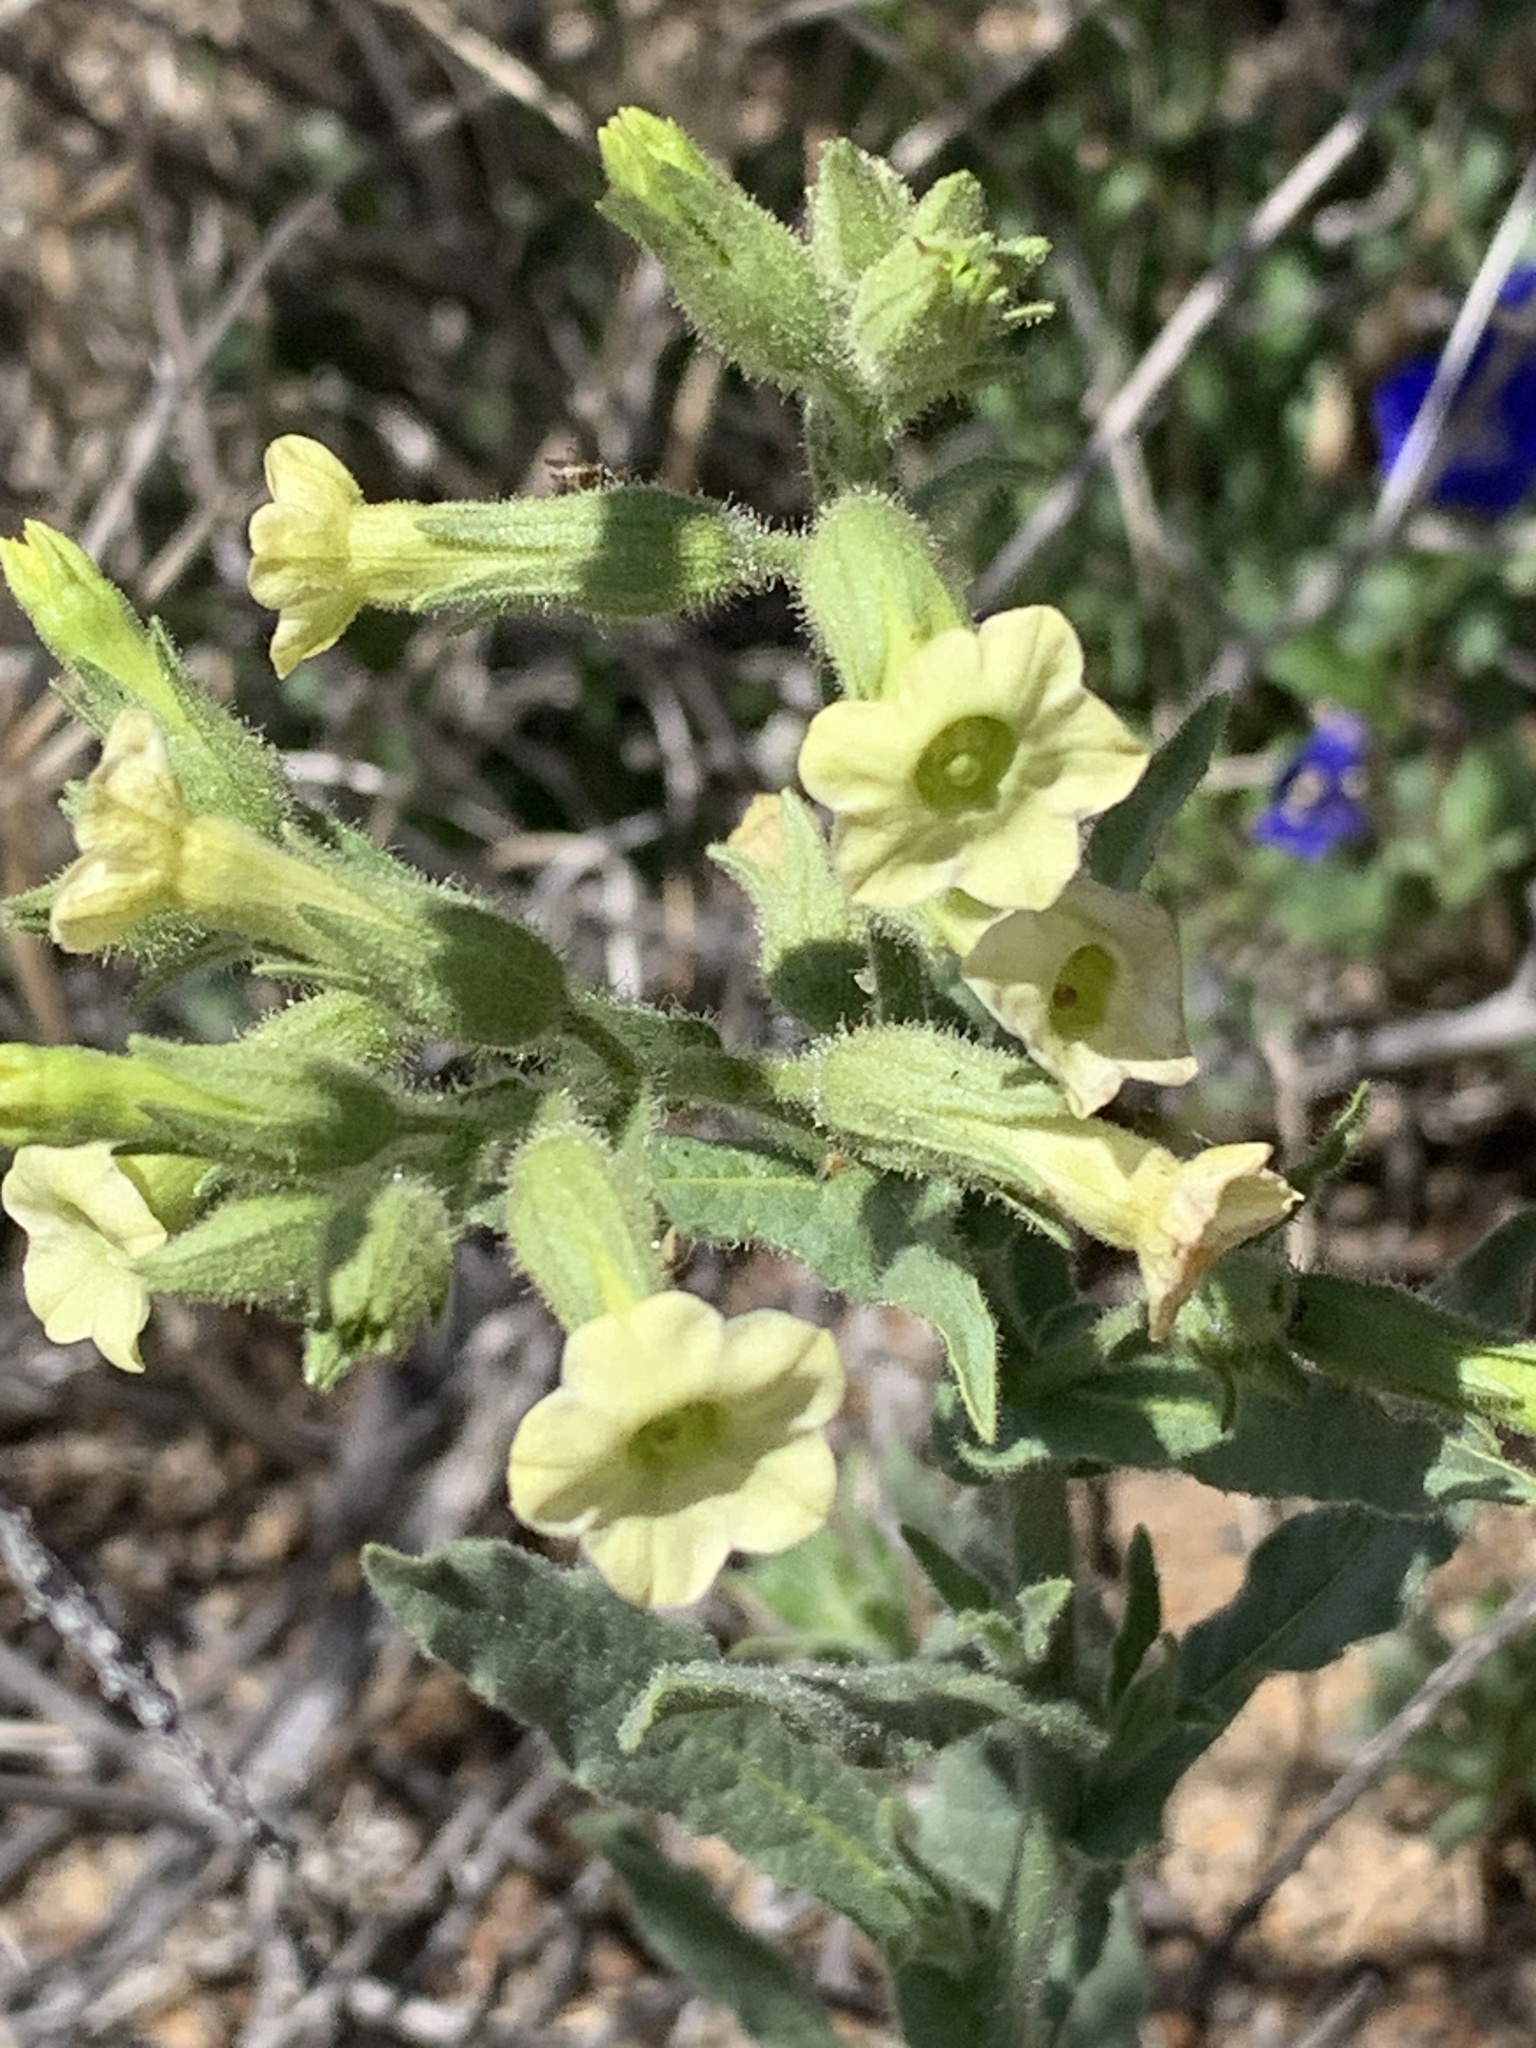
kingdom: Plantae
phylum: Tracheophyta
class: Magnoliopsida
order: Solanales
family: Solanaceae
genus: Nicotiana
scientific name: Nicotiana obtusifolia
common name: Desert tobacco
